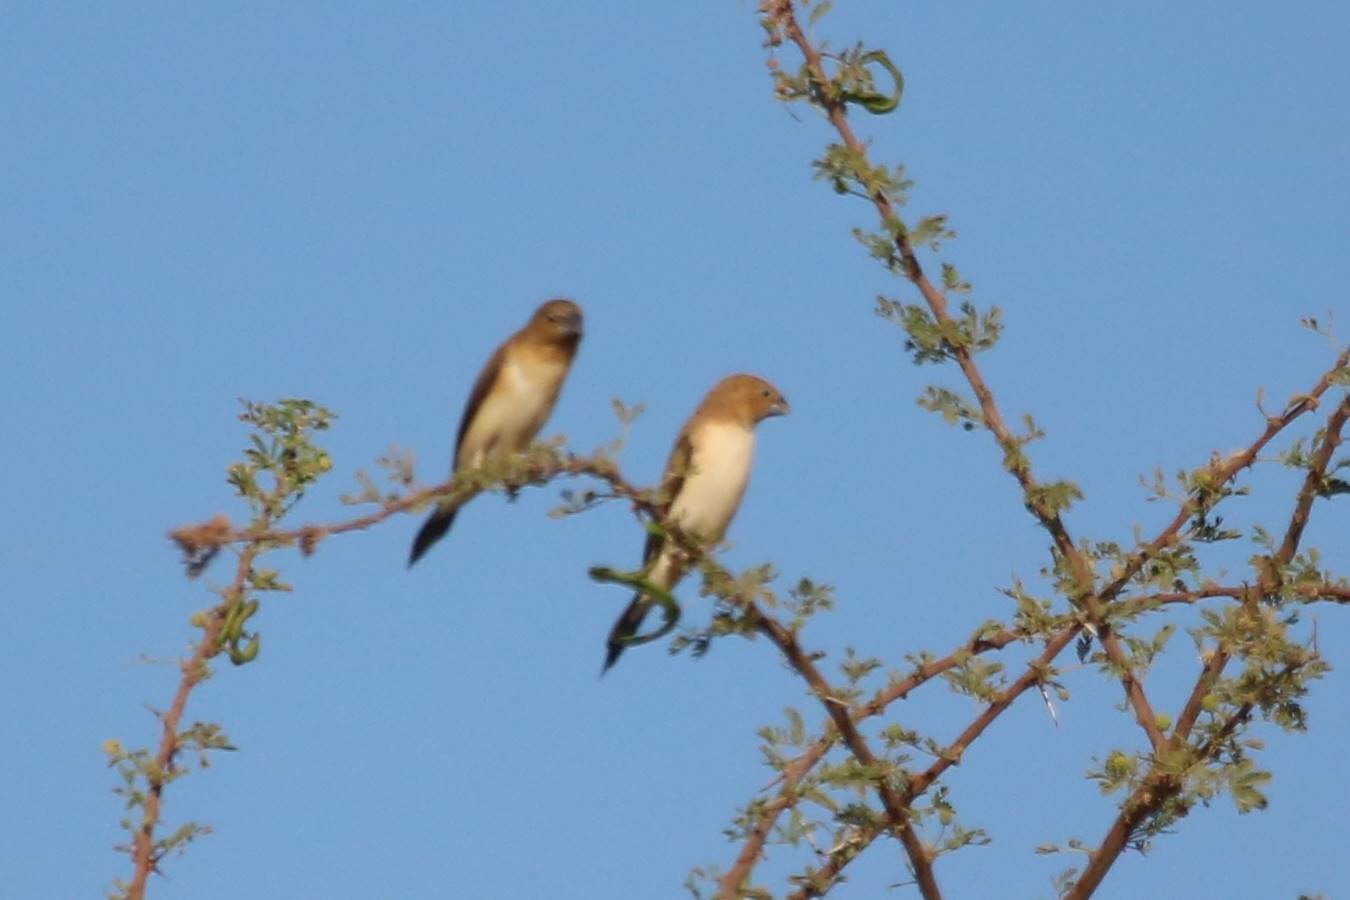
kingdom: Animalia
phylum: Chordata
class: Aves
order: Passeriformes
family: Estrildidae
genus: Euodice
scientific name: Euodice cantans
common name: African silverbill
